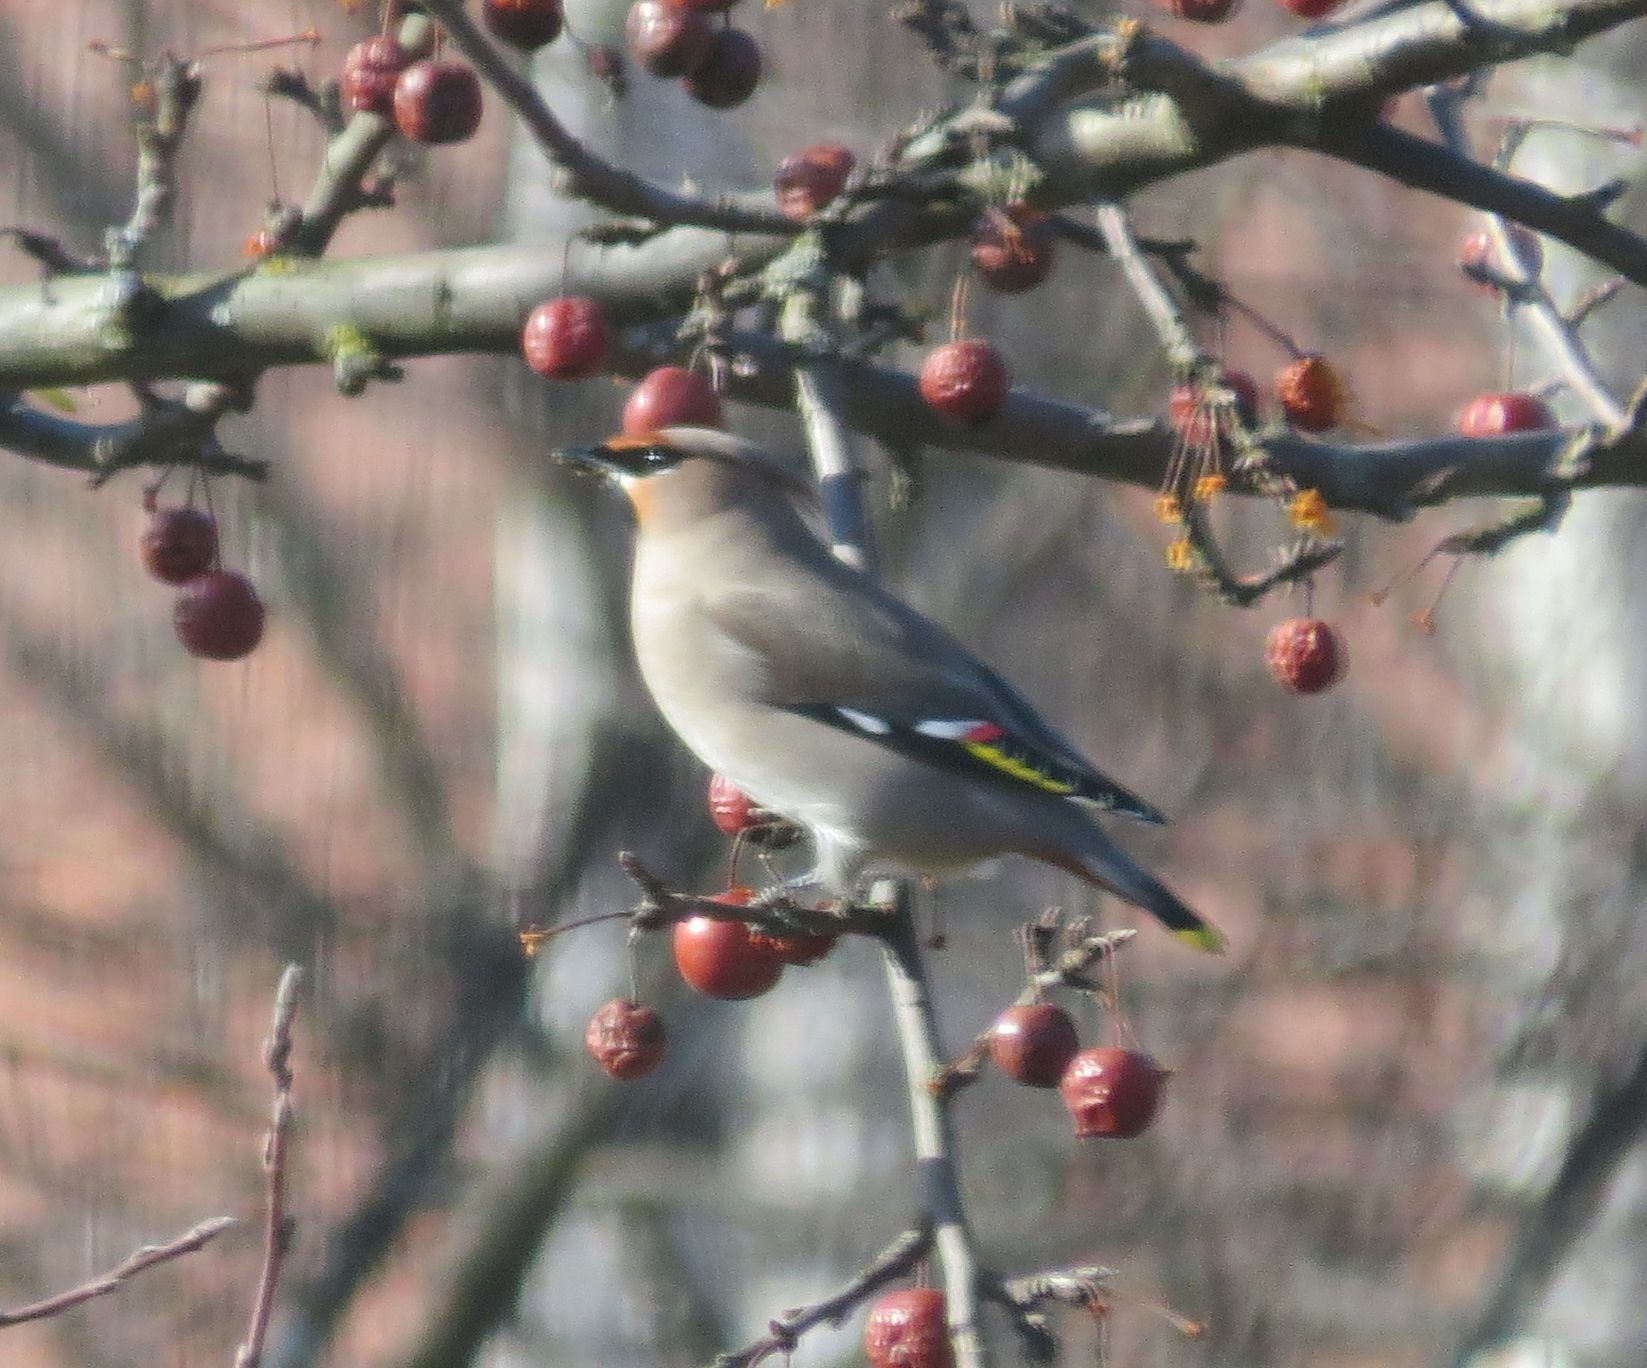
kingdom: Animalia
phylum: Chordata
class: Aves
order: Passeriformes
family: Bombycillidae
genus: Bombycilla
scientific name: Bombycilla garrulus
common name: Bohemian waxwing
